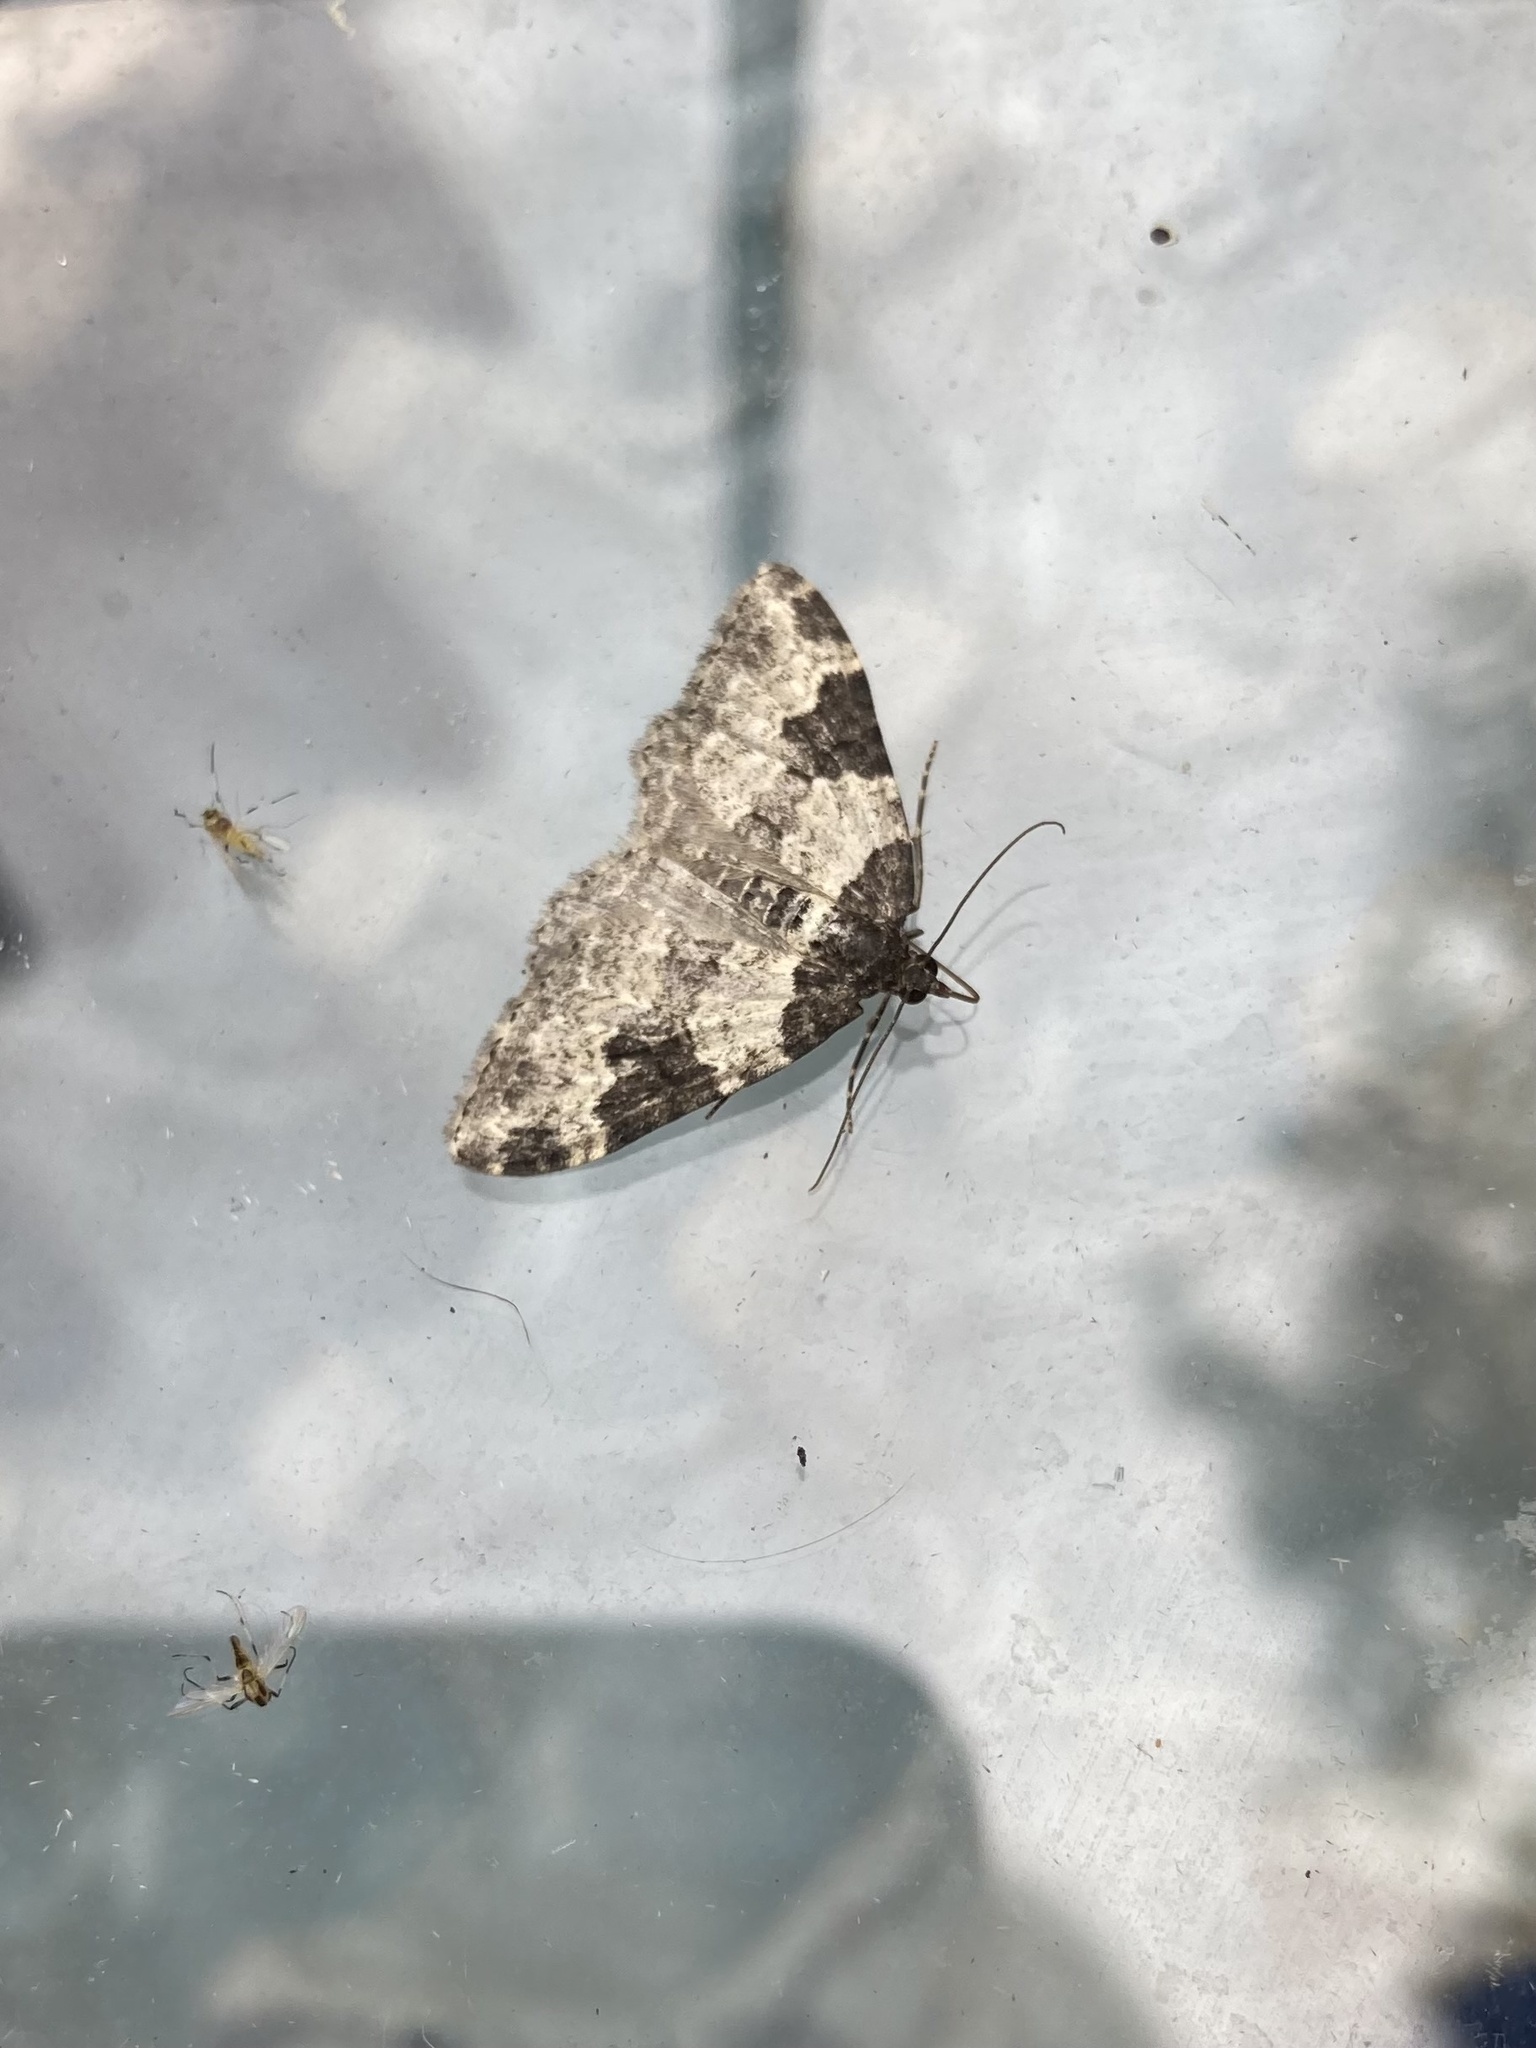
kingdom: Animalia
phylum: Arthropoda
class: Insecta
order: Lepidoptera
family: Geometridae
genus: Xanthorhoe
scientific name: Xanthorhoe fluctuata
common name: Garden carpet
